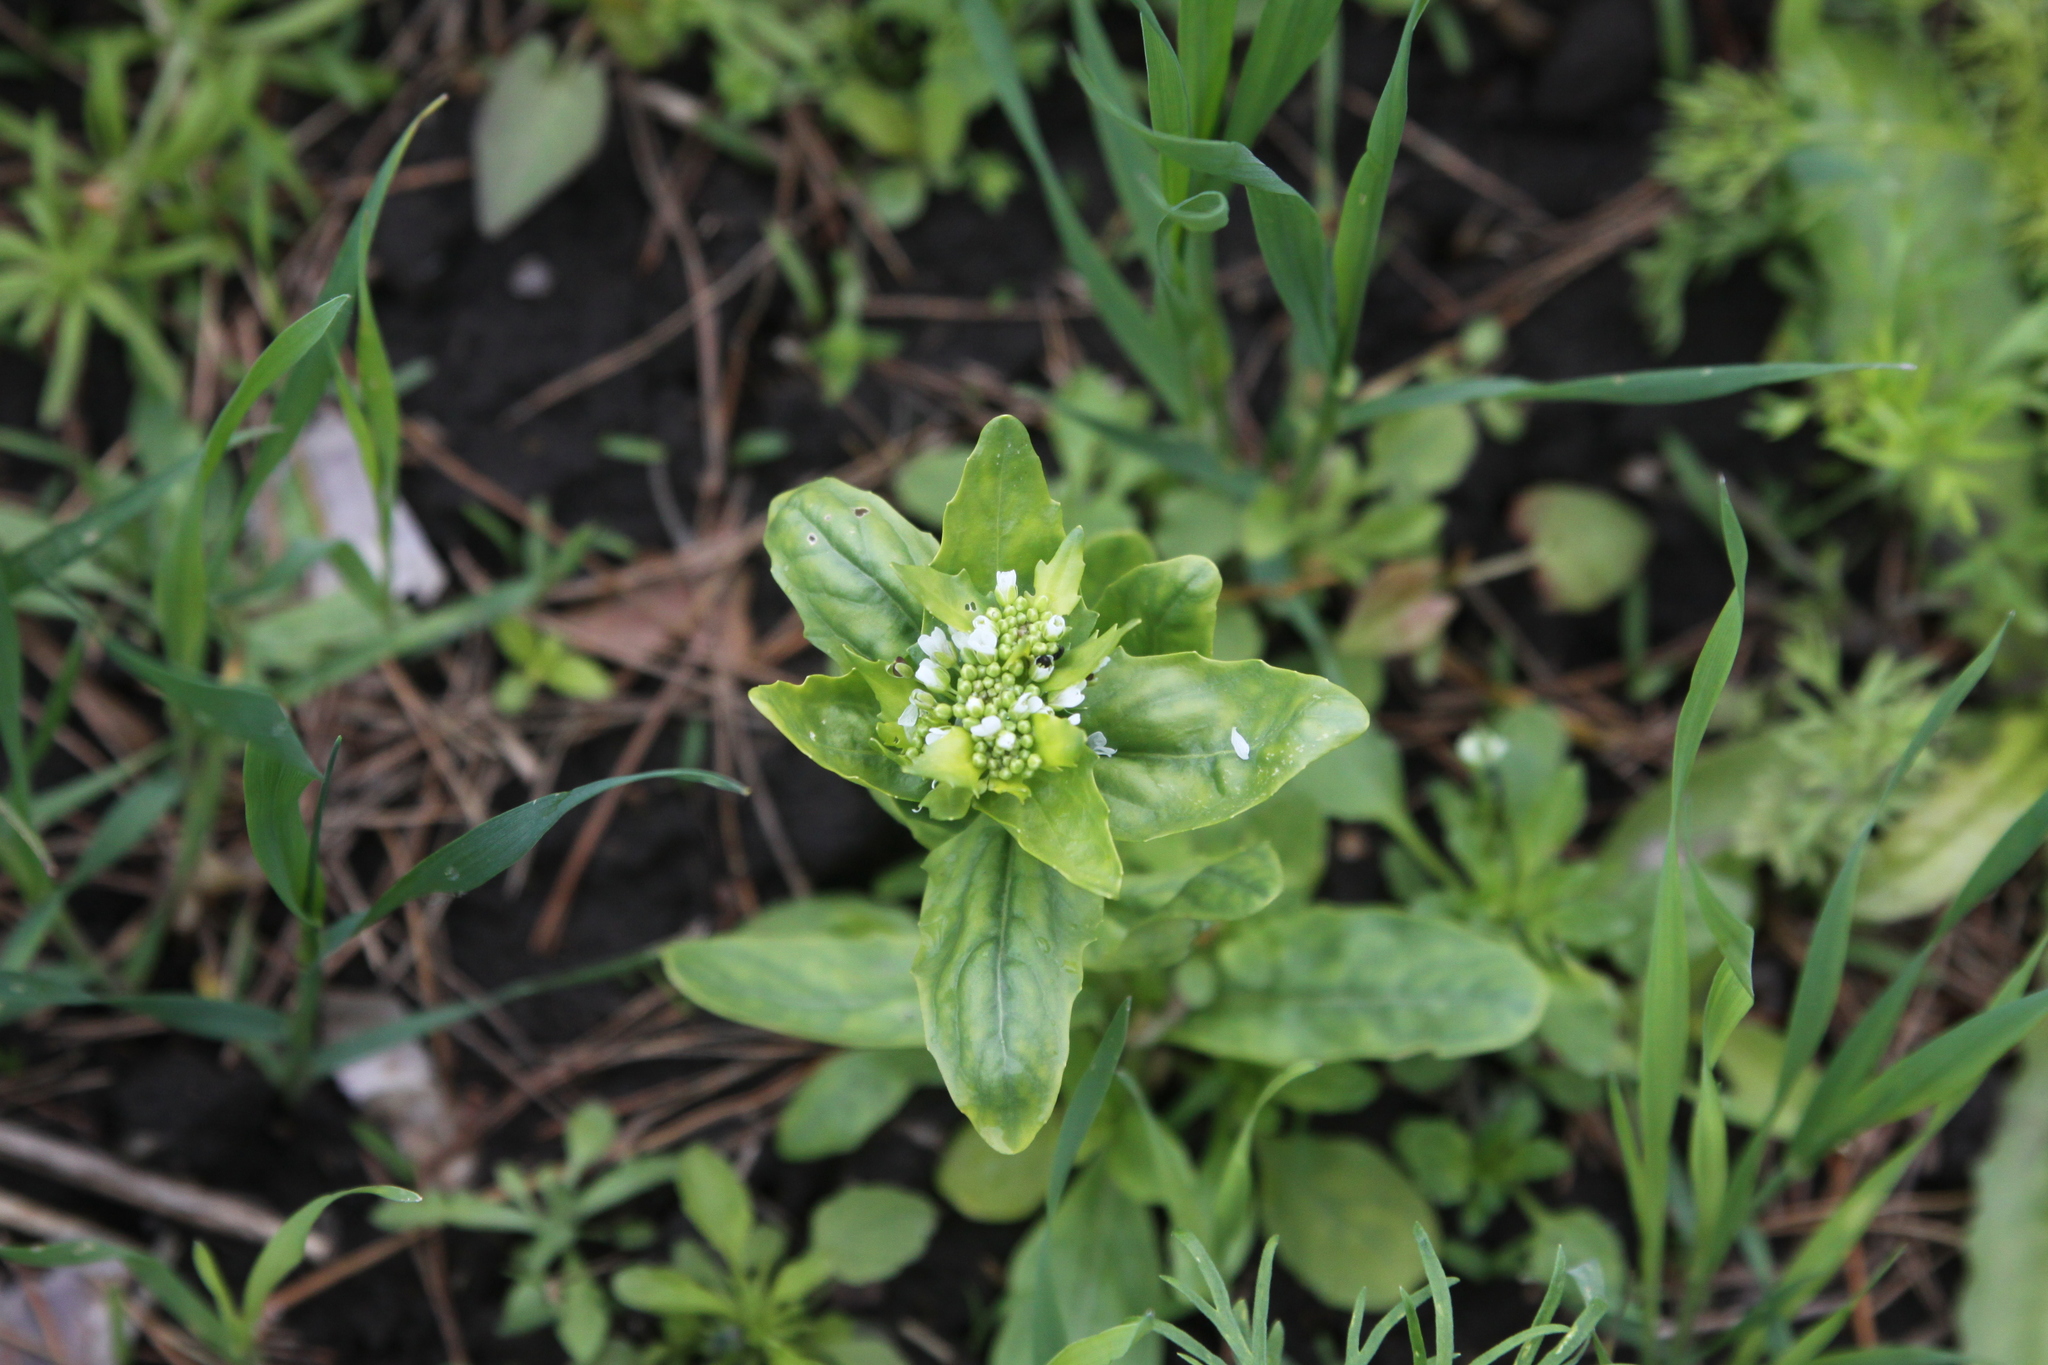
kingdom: Plantae
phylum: Tracheophyta
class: Magnoliopsida
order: Brassicales
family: Brassicaceae
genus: Thlaspi
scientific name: Thlaspi arvense
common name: Field pennycress
